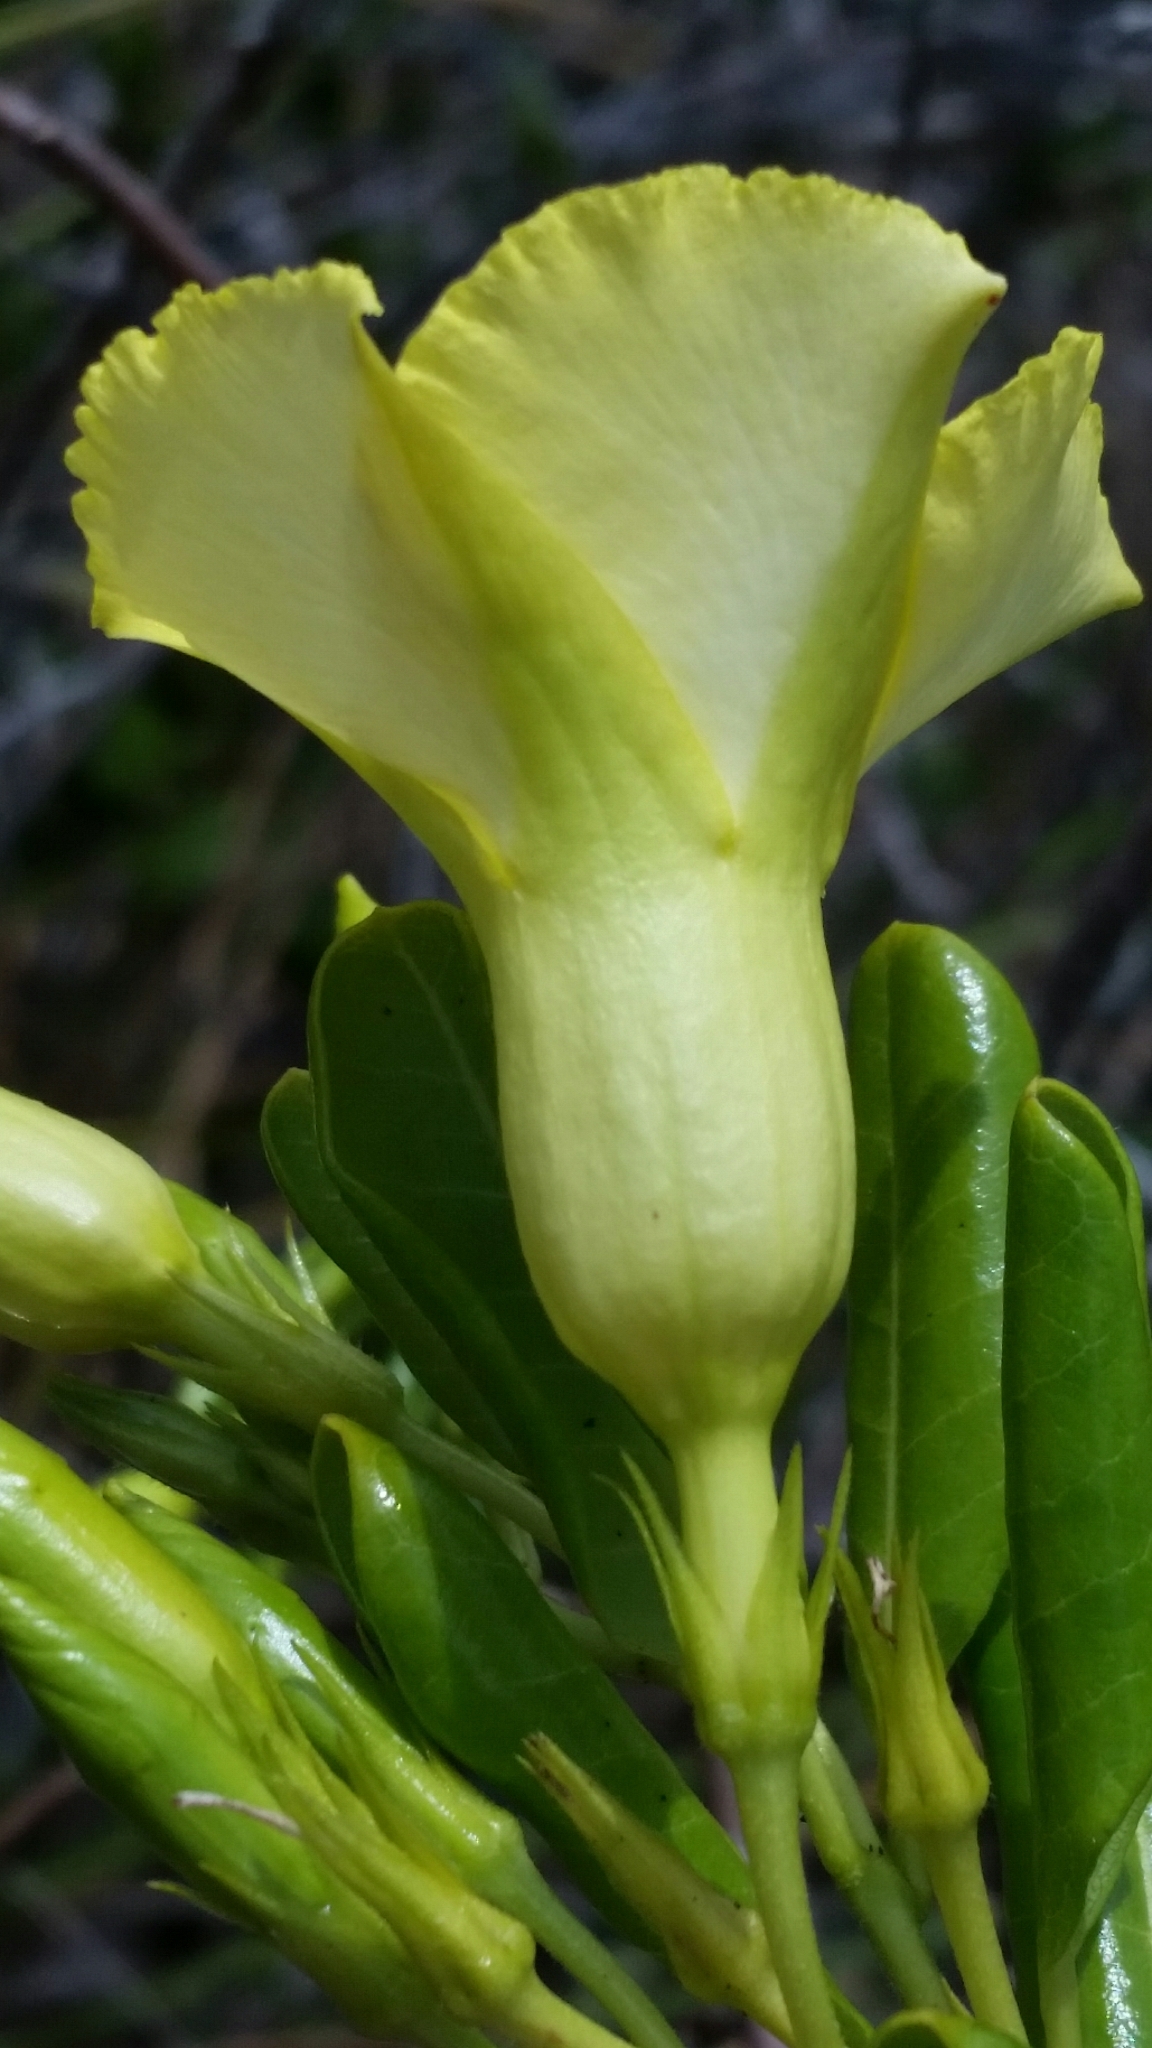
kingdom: Plantae
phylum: Tracheophyta
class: Magnoliopsida
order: Gentianales
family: Apocynaceae
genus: Pentalinon
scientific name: Pentalinon luteum
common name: Licebush
